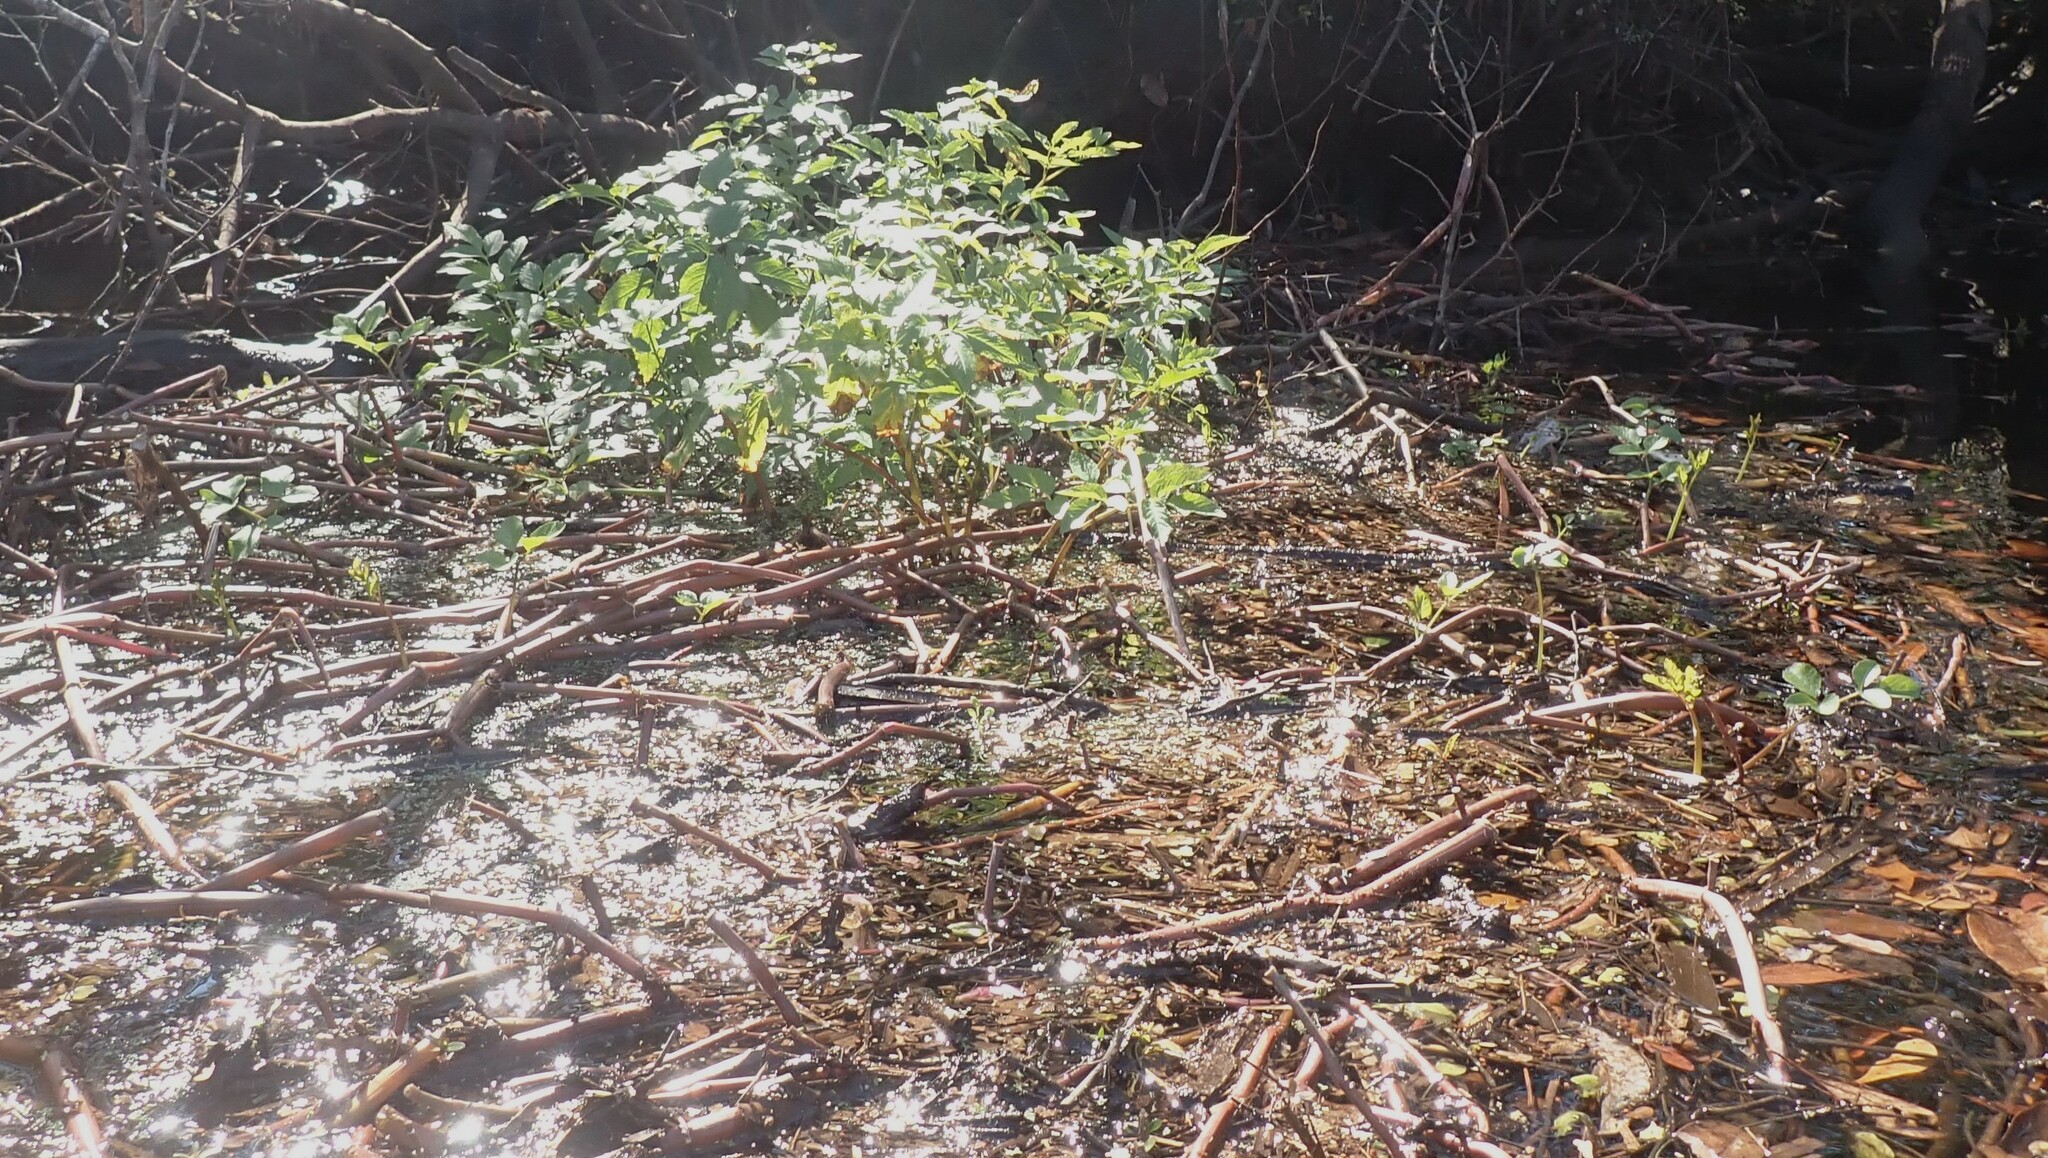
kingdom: Plantae
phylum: Tracheophyta
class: Magnoliopsida
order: Caryophyllales
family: Amaranthaceae
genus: Alternanthera
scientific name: Alternanthera philoxeroides
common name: Alligatorweed
